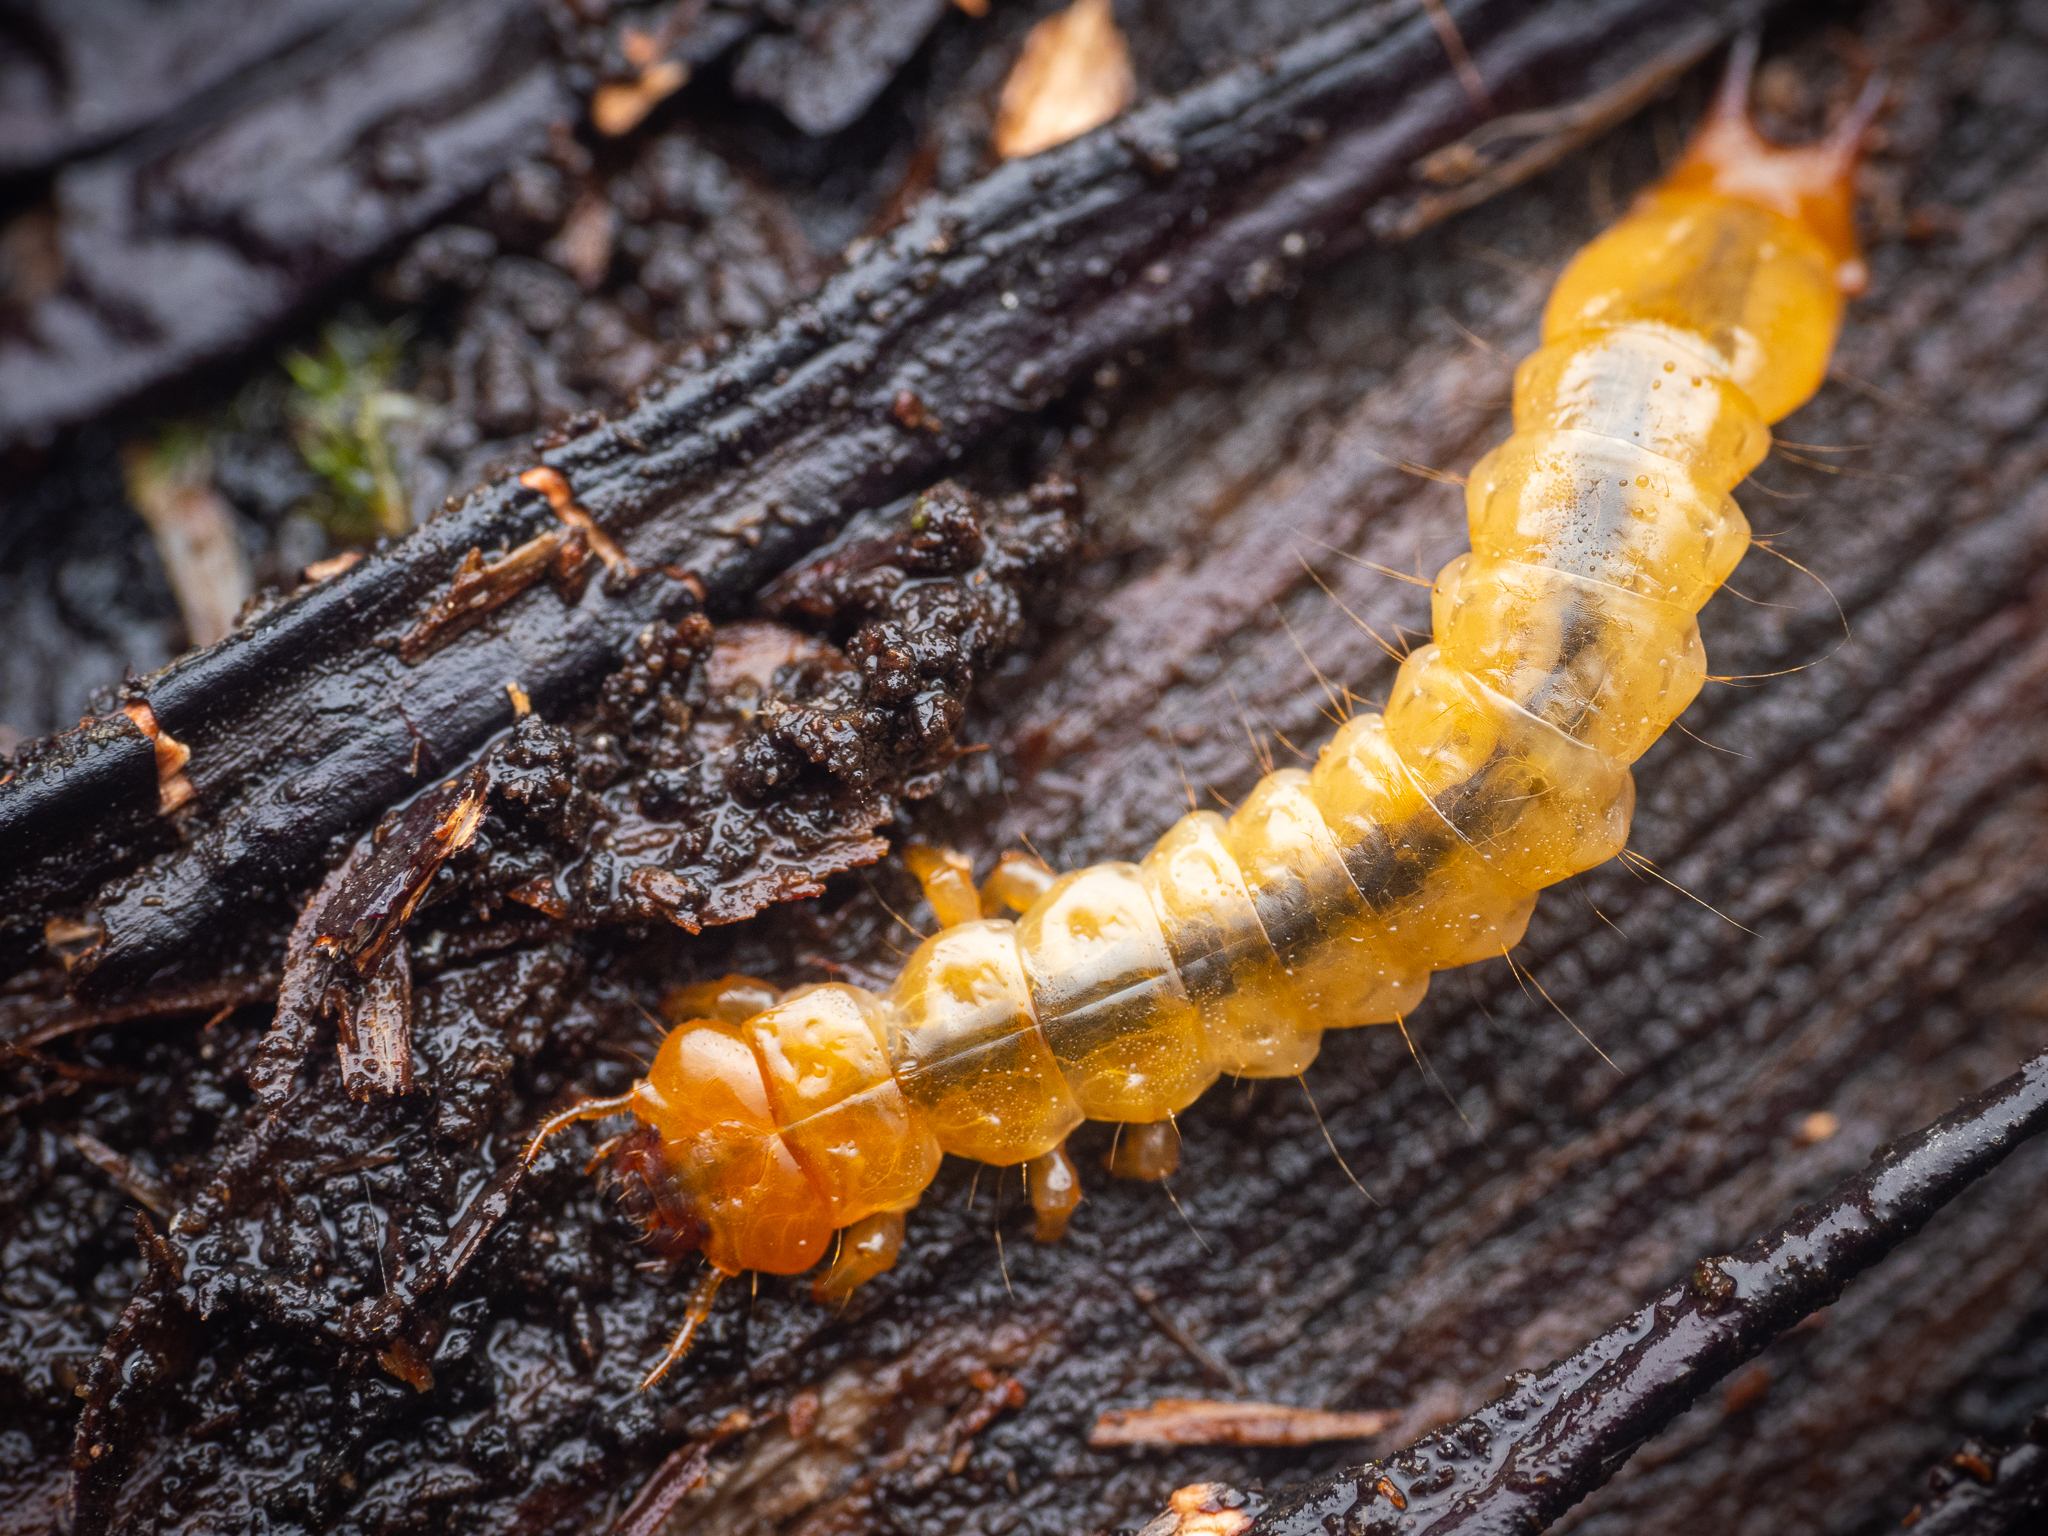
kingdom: Animalia
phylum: Arthropoda
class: Insecta
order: Coleoptera
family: Pyrochroidae
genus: Pyrochroa
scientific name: Pyrochroa coccinea
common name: Black-headed cardinal beetle
